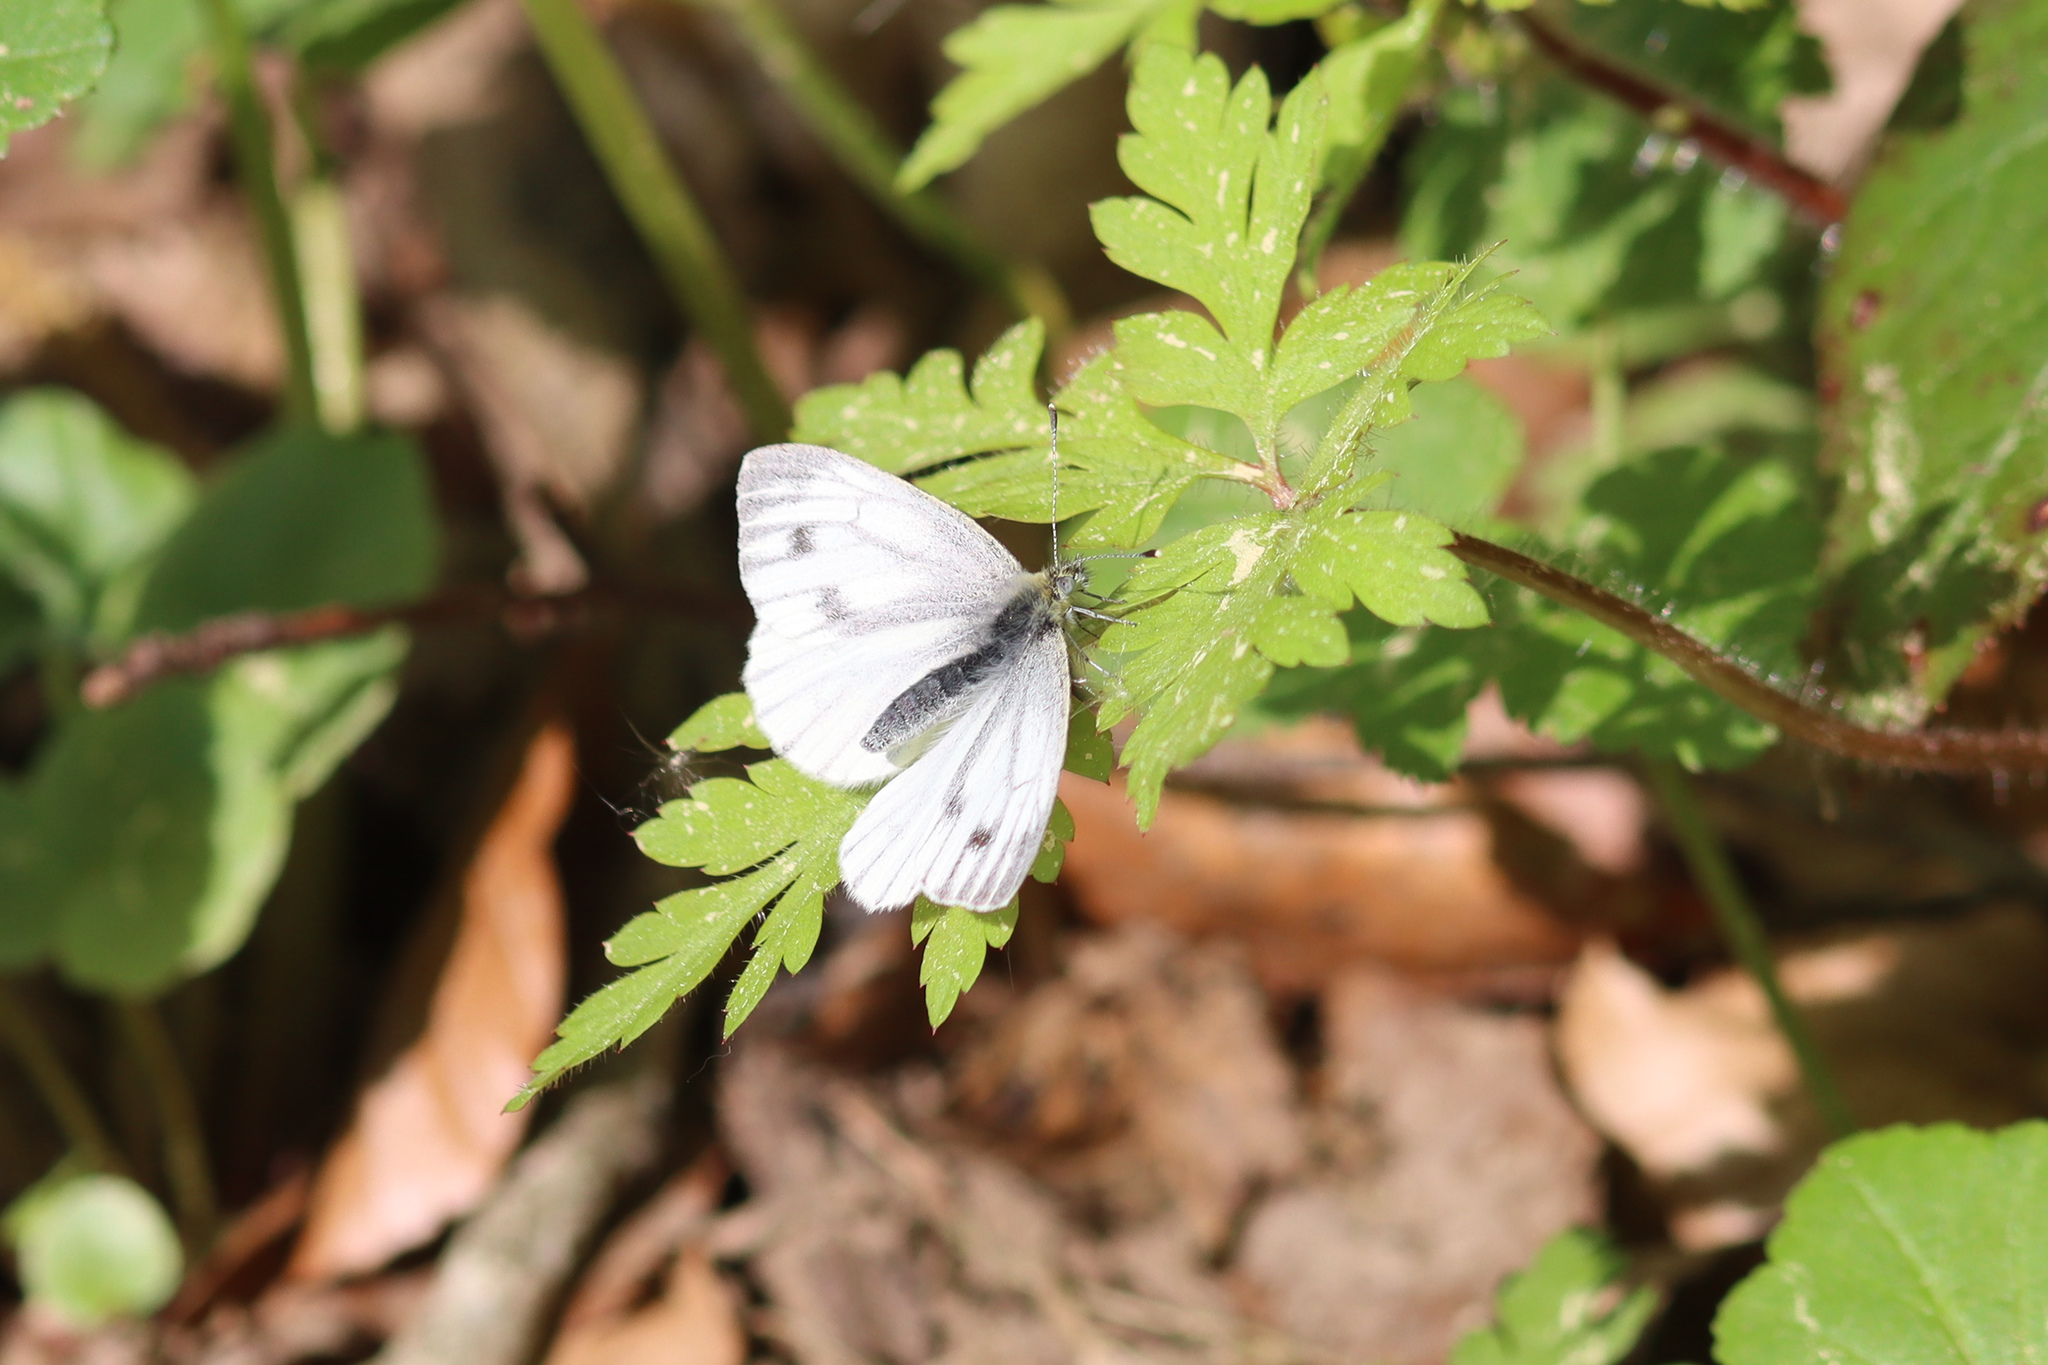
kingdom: Animalia
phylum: Arthropoda
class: Insecta
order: Lepidoptera
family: Pieridae
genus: Pieris
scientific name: Pieris napi
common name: Green-veined white
